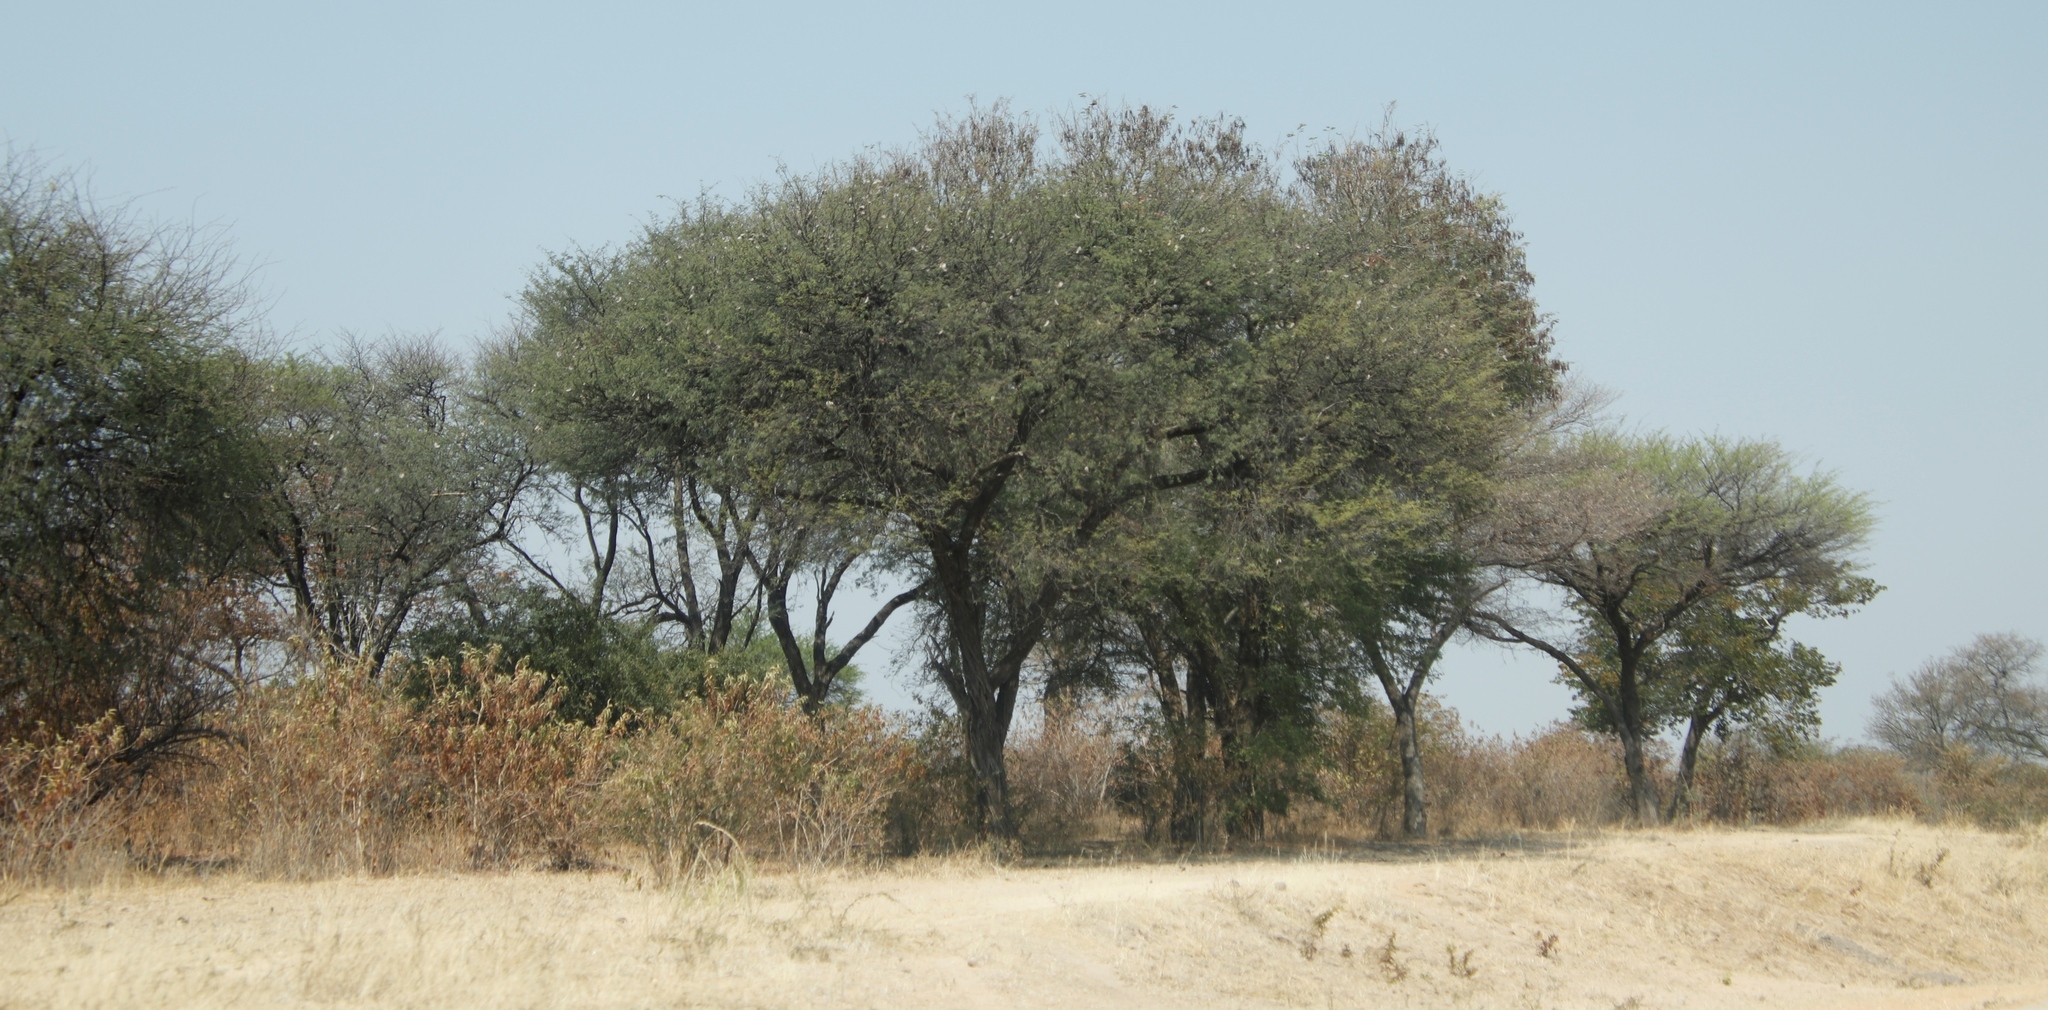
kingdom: Plantae
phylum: Tracheophyta
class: Magnoliopsida
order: Fabales
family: Fabaceae
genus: Vachellia
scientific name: Vachellia erioloba
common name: Camel thorn
